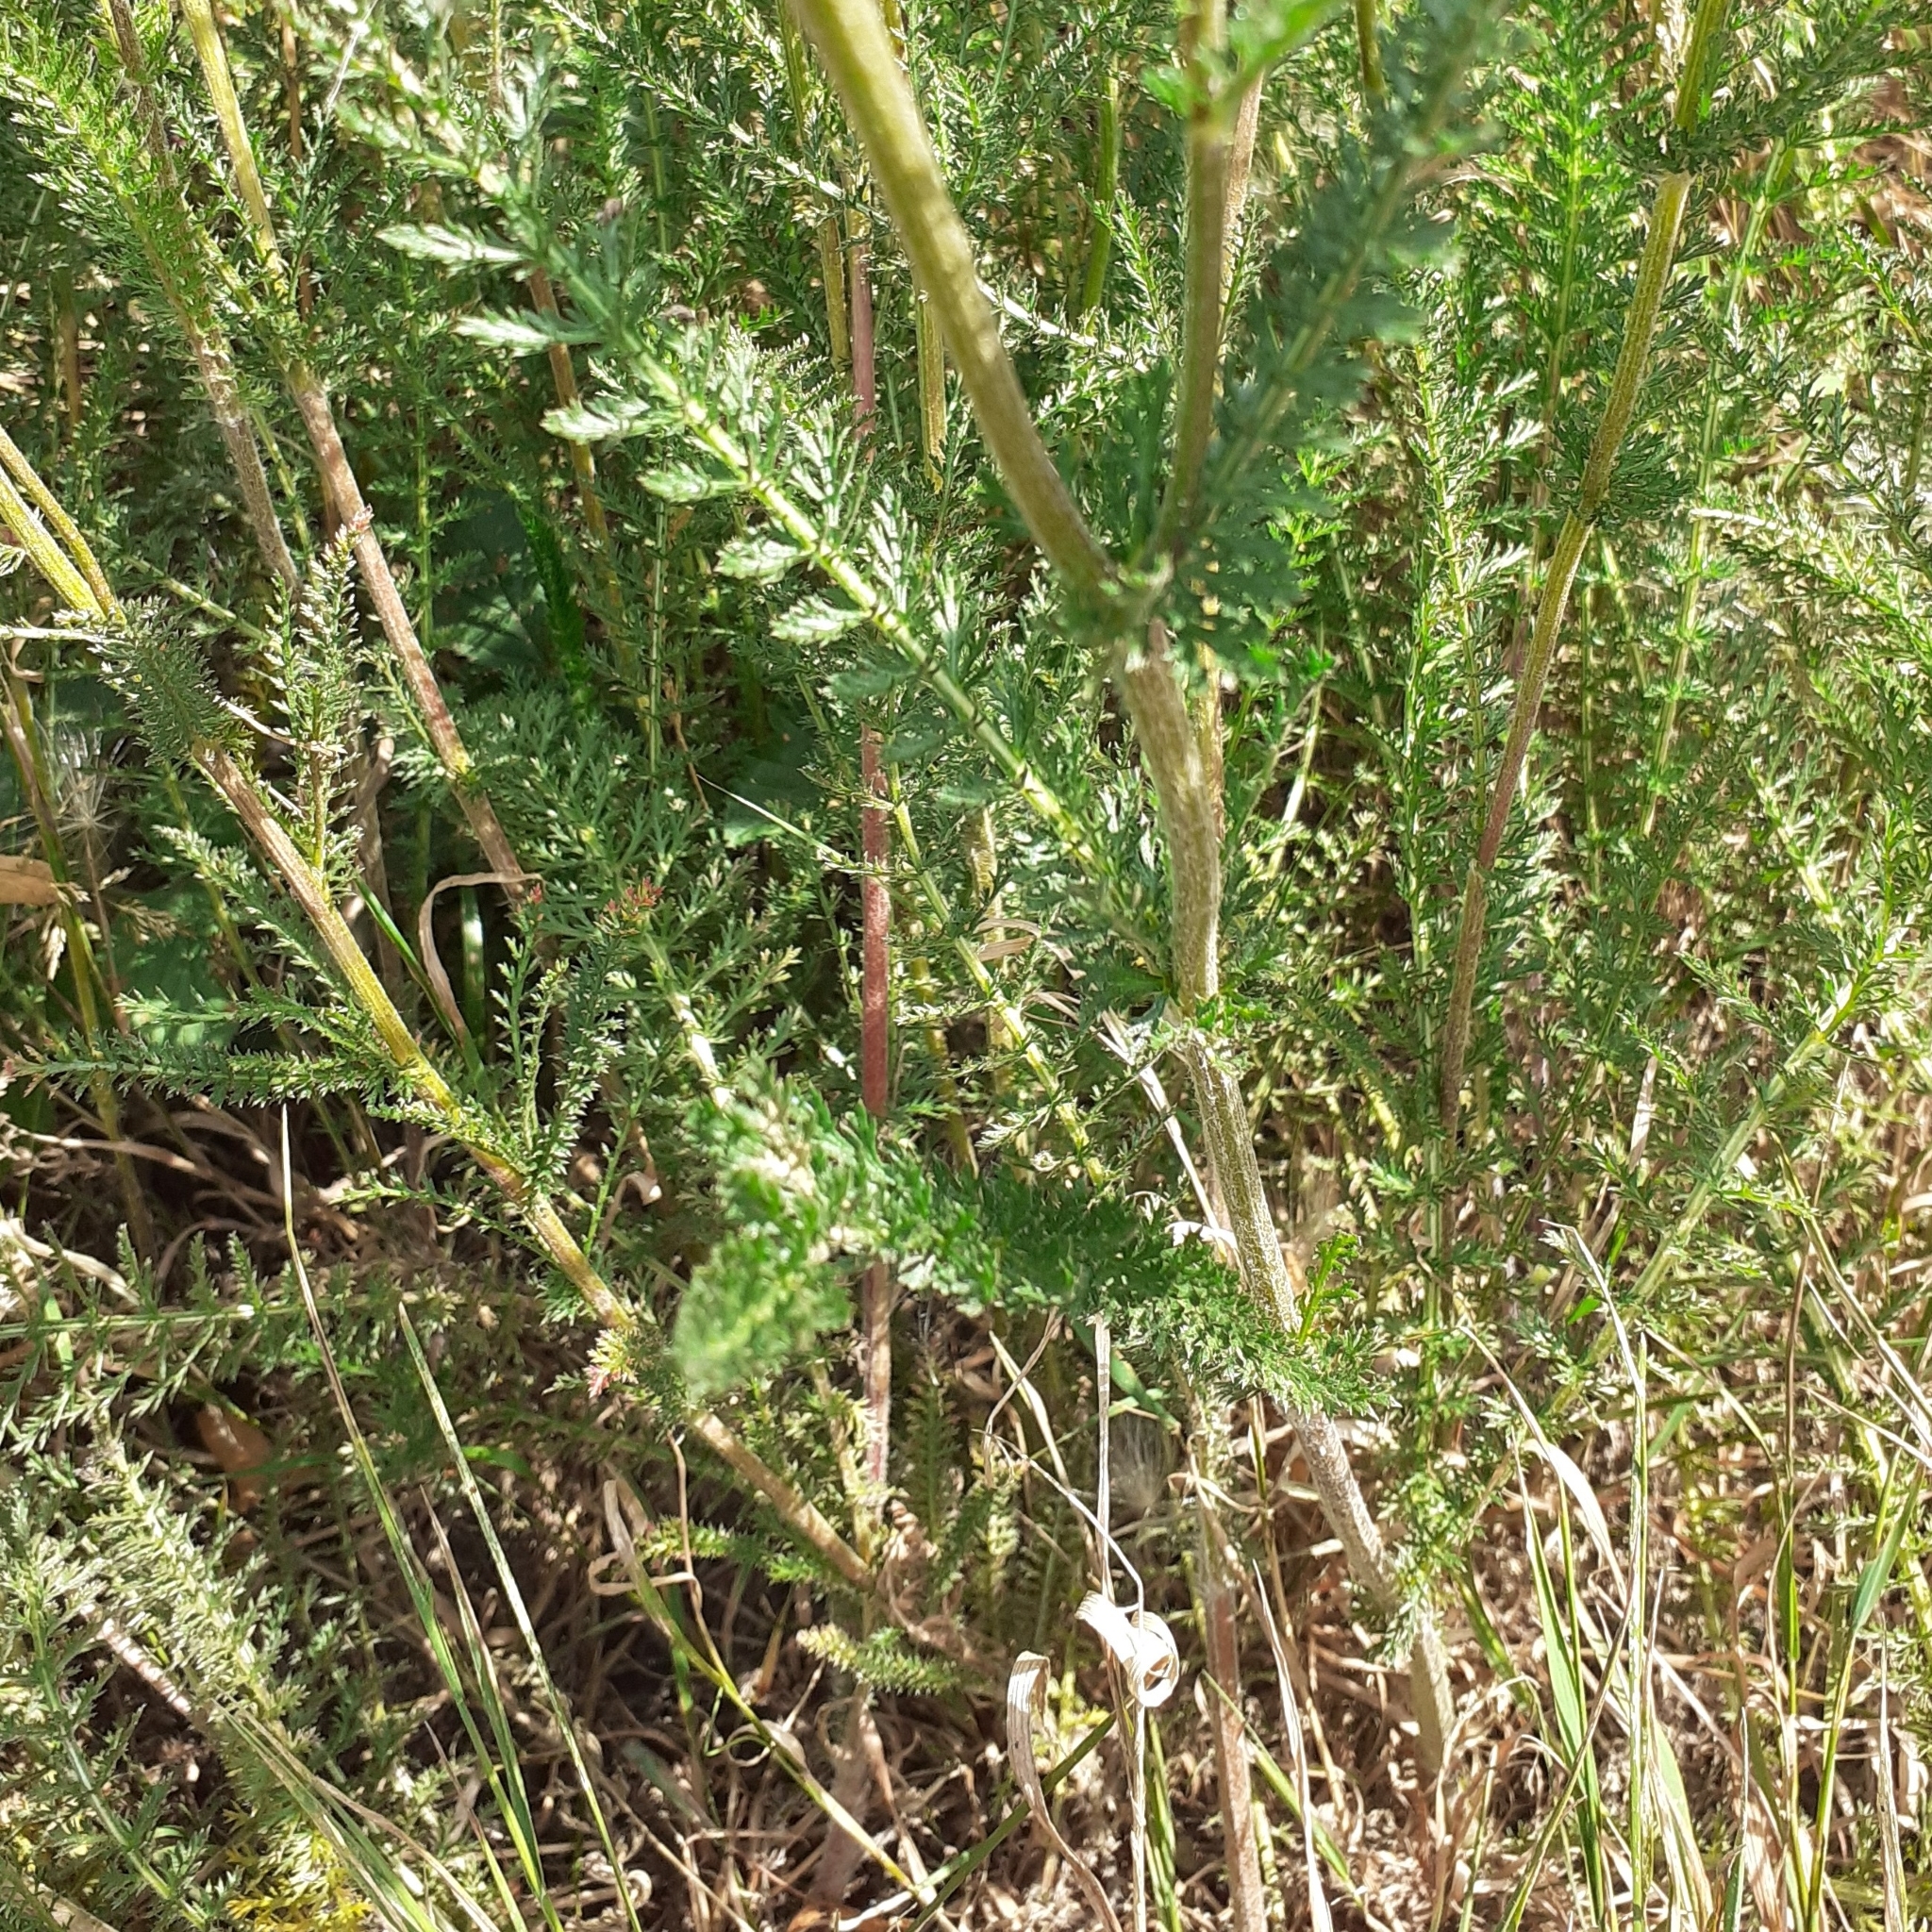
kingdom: Plantae
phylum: Tracheophyta
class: Magnoliopsida
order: Asterales
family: Asteraceae
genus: Achillea
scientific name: Achillea millefolium
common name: Yarrow
